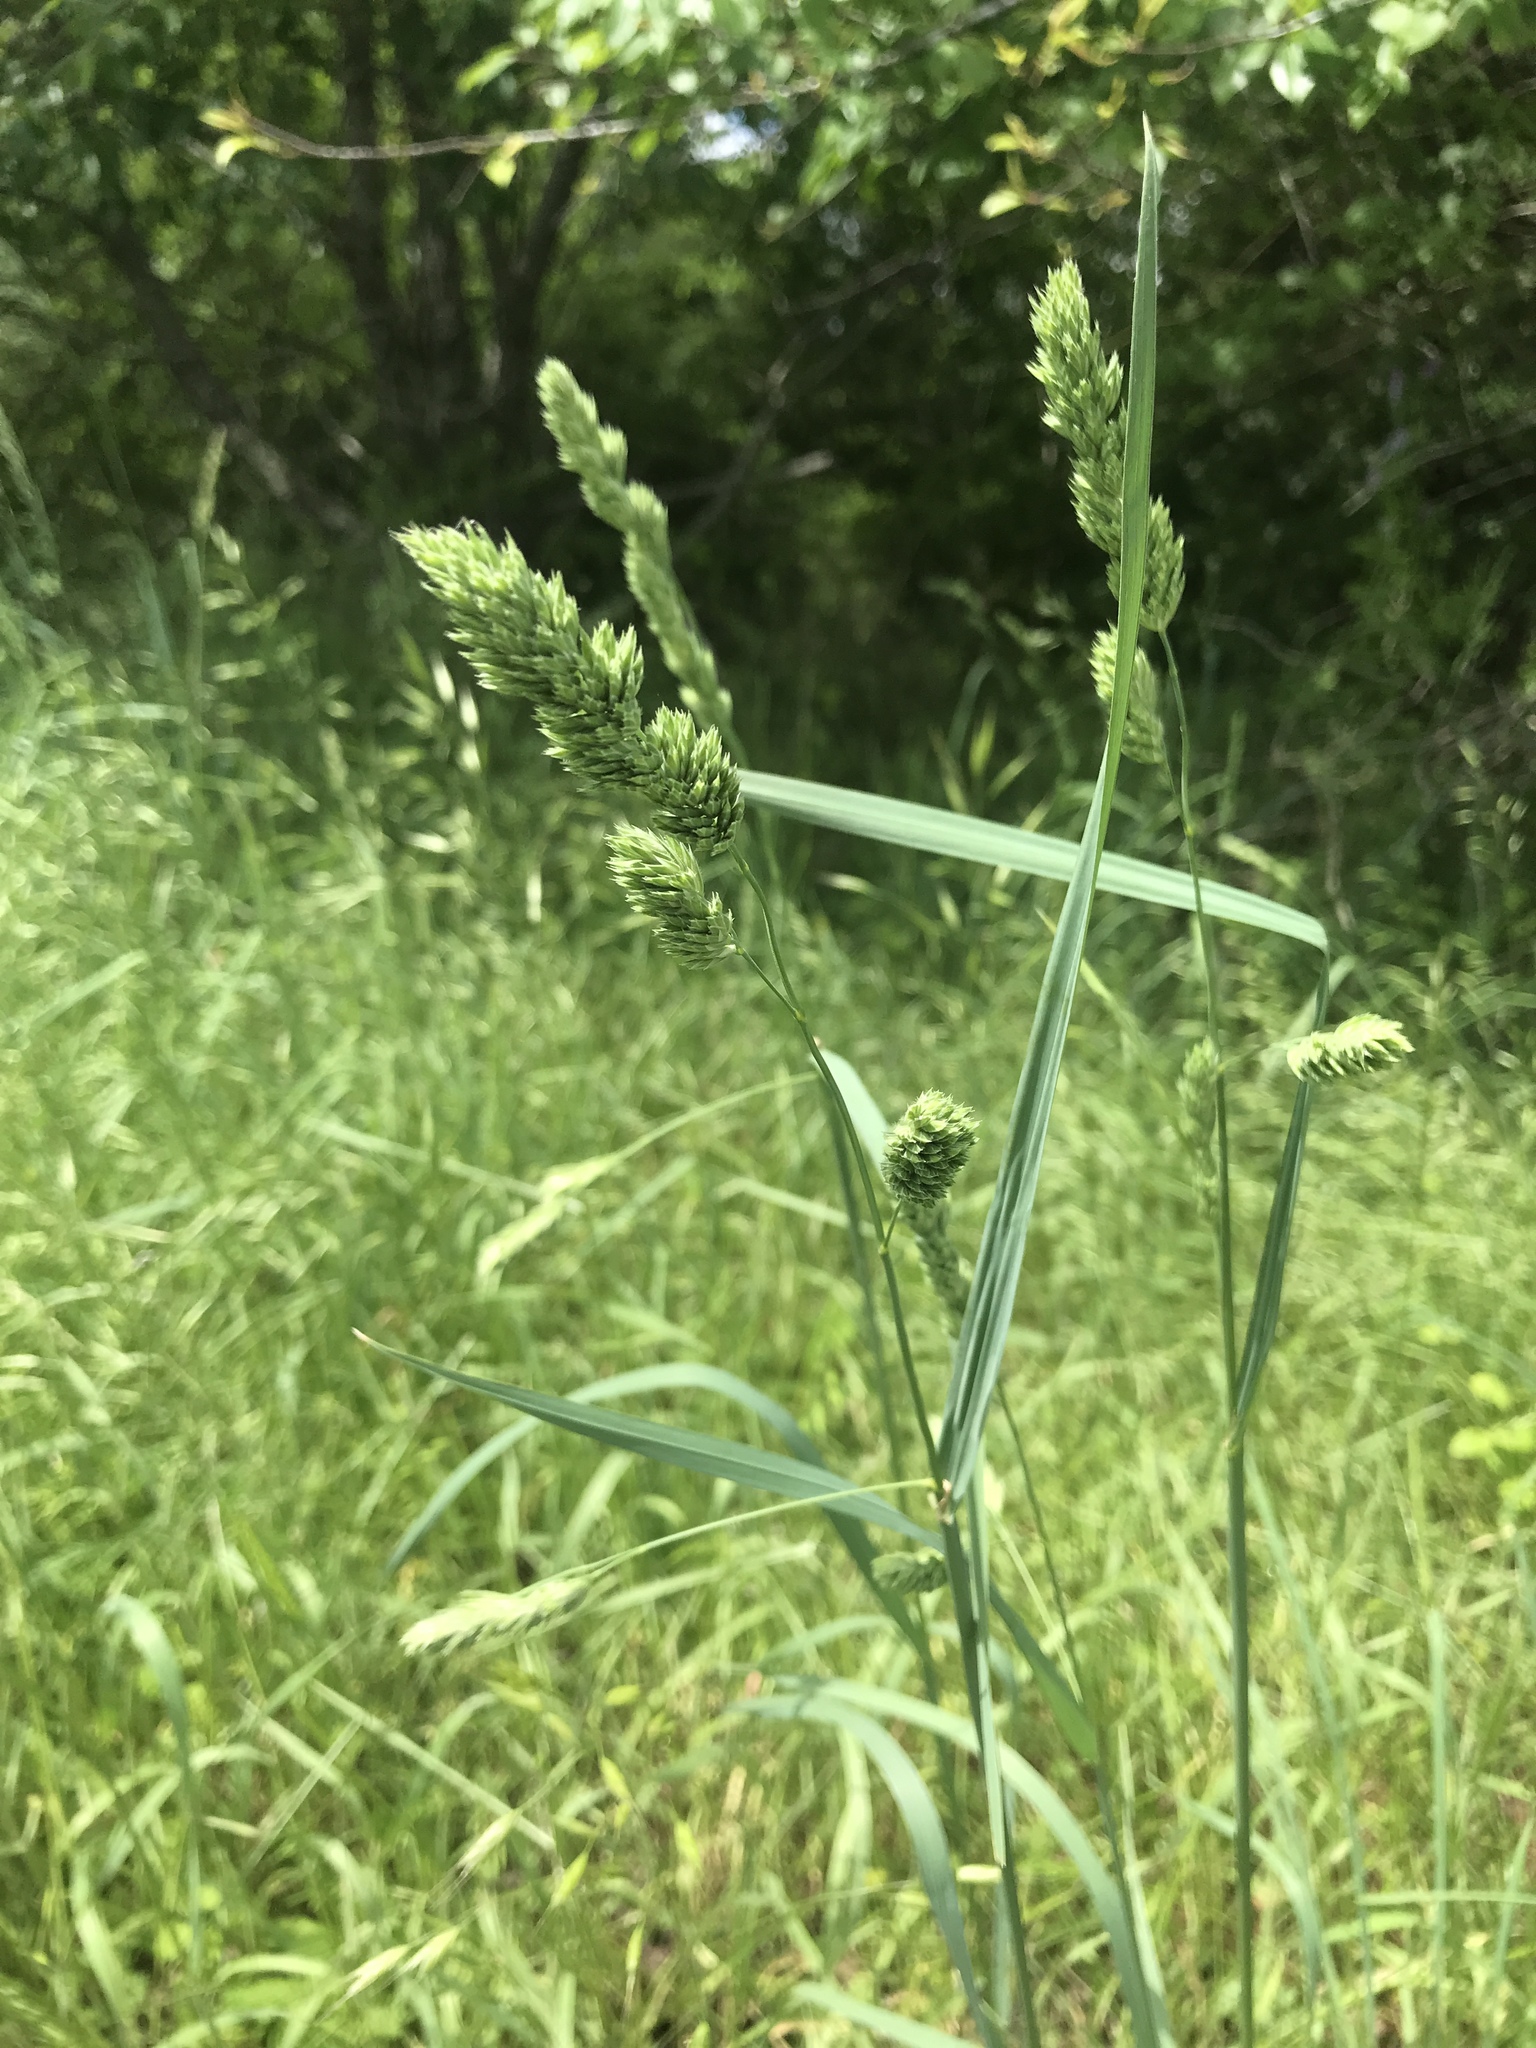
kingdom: Plantae
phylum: Tracheophyta
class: Liliopsida
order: Poales
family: Poaceae
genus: Dactylis
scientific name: Dactylis glomerata
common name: Orchardgrass
